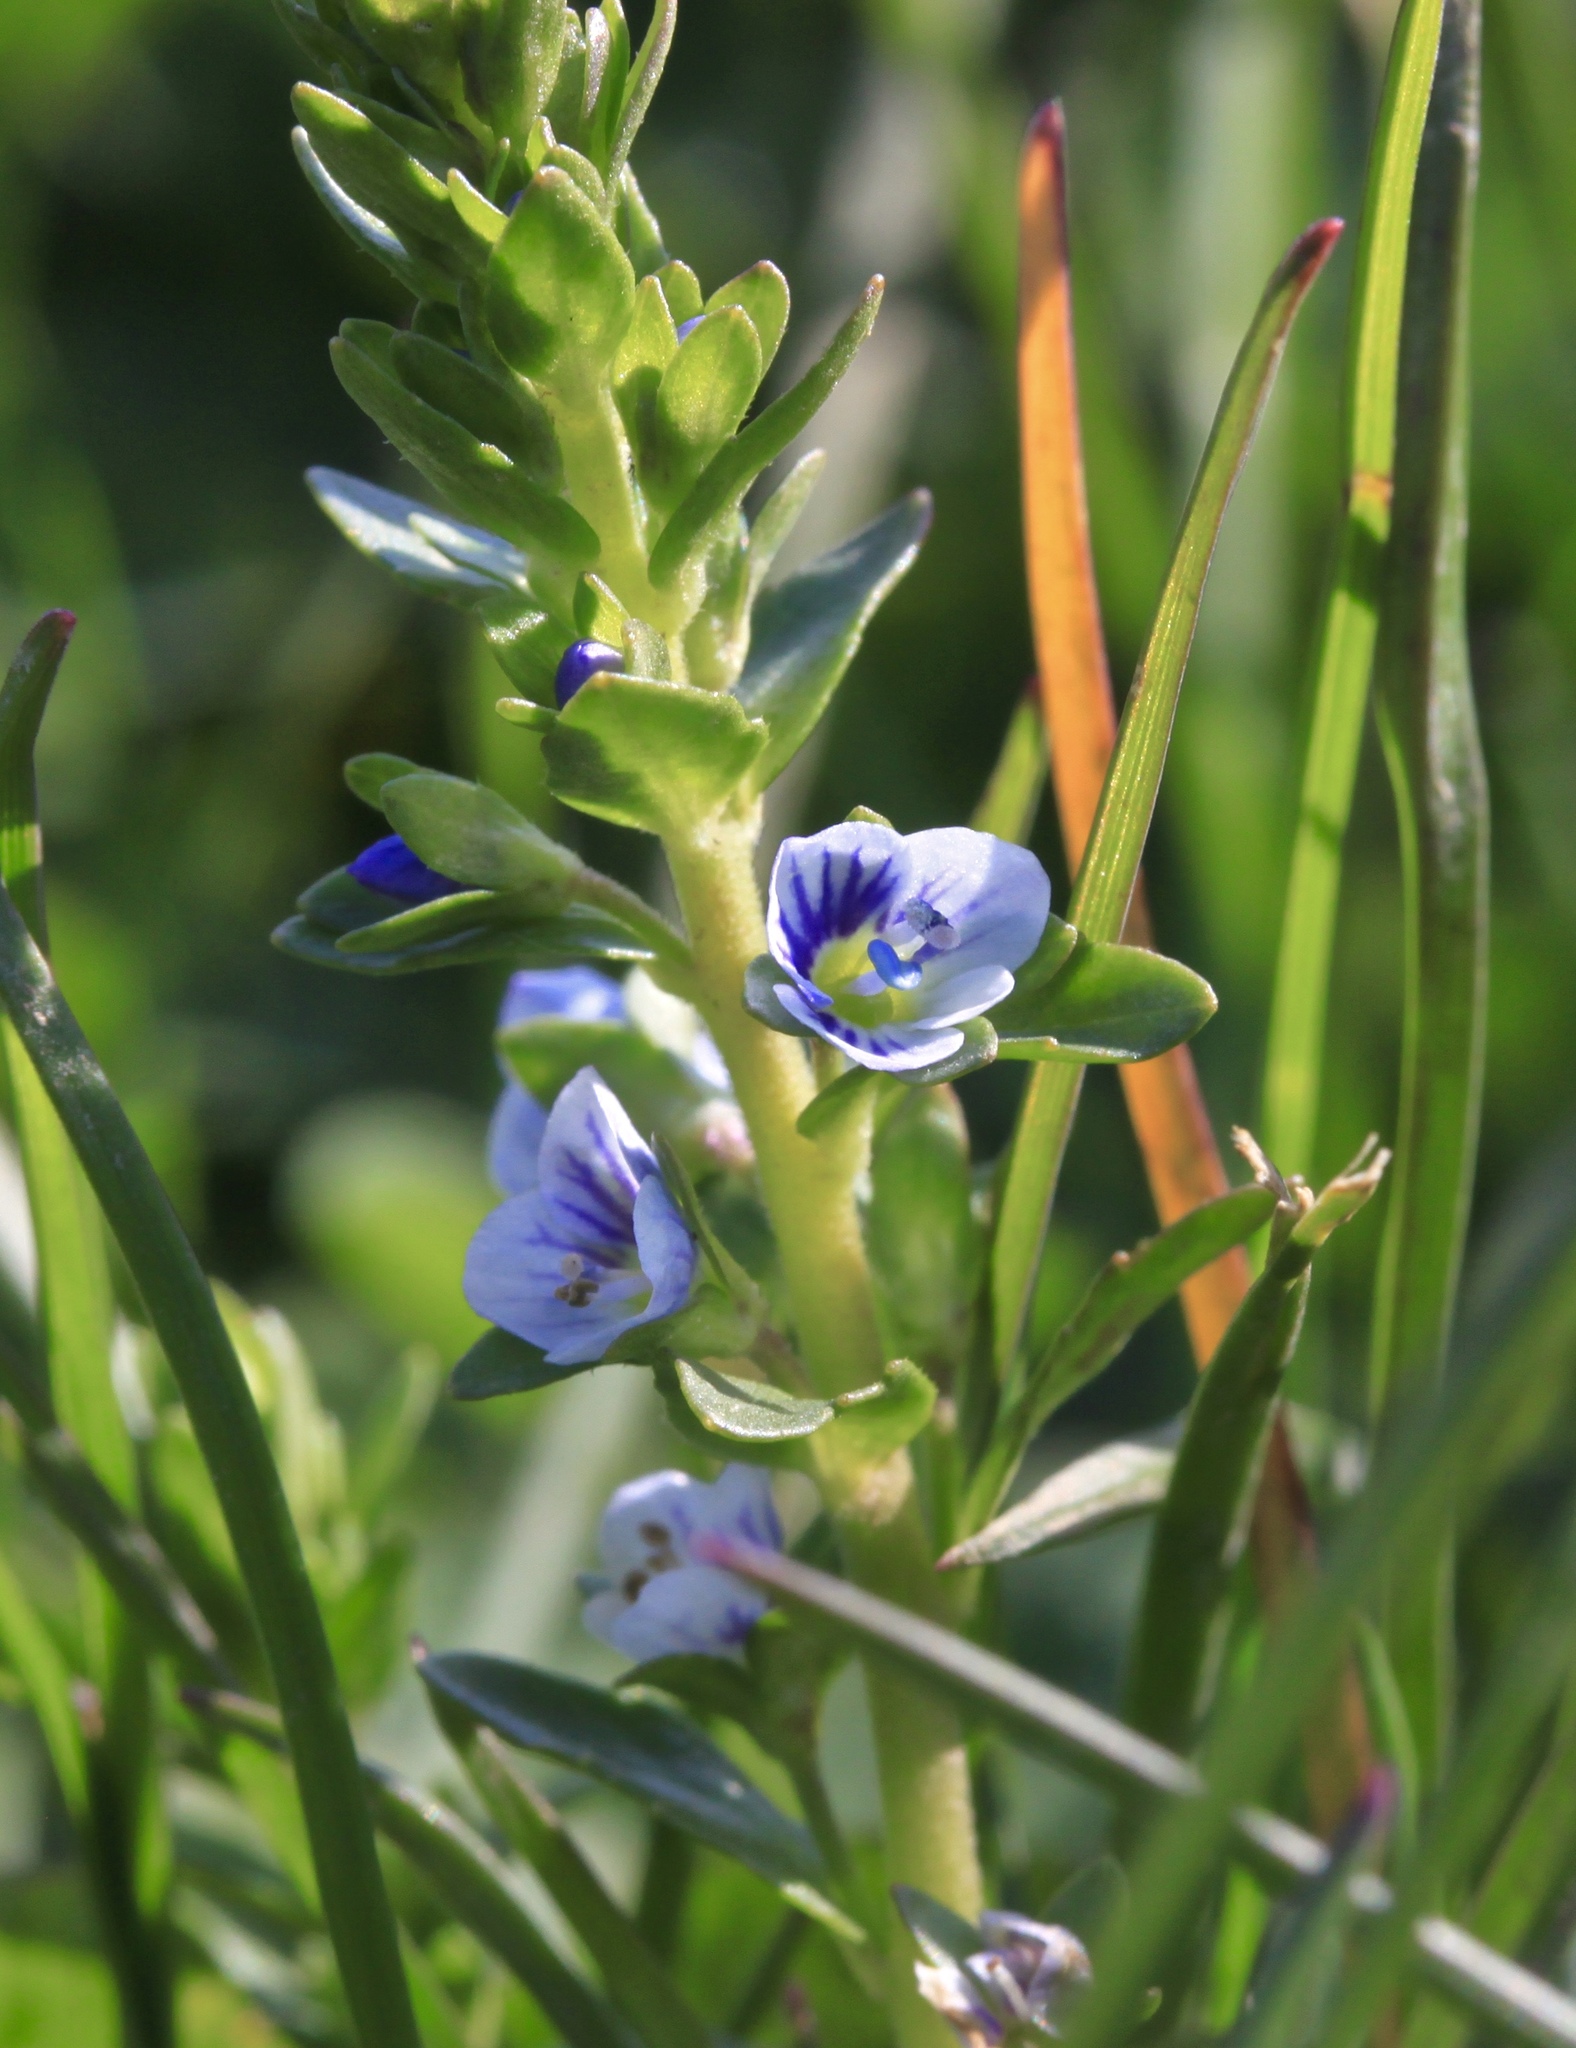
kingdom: Plantae
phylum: Tracheophyta
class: Magnoliopsida
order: Lamiales
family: Plantaginaceae
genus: Veronica
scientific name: Veronica serpyllifolia
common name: Thyme-leaved speedwell
